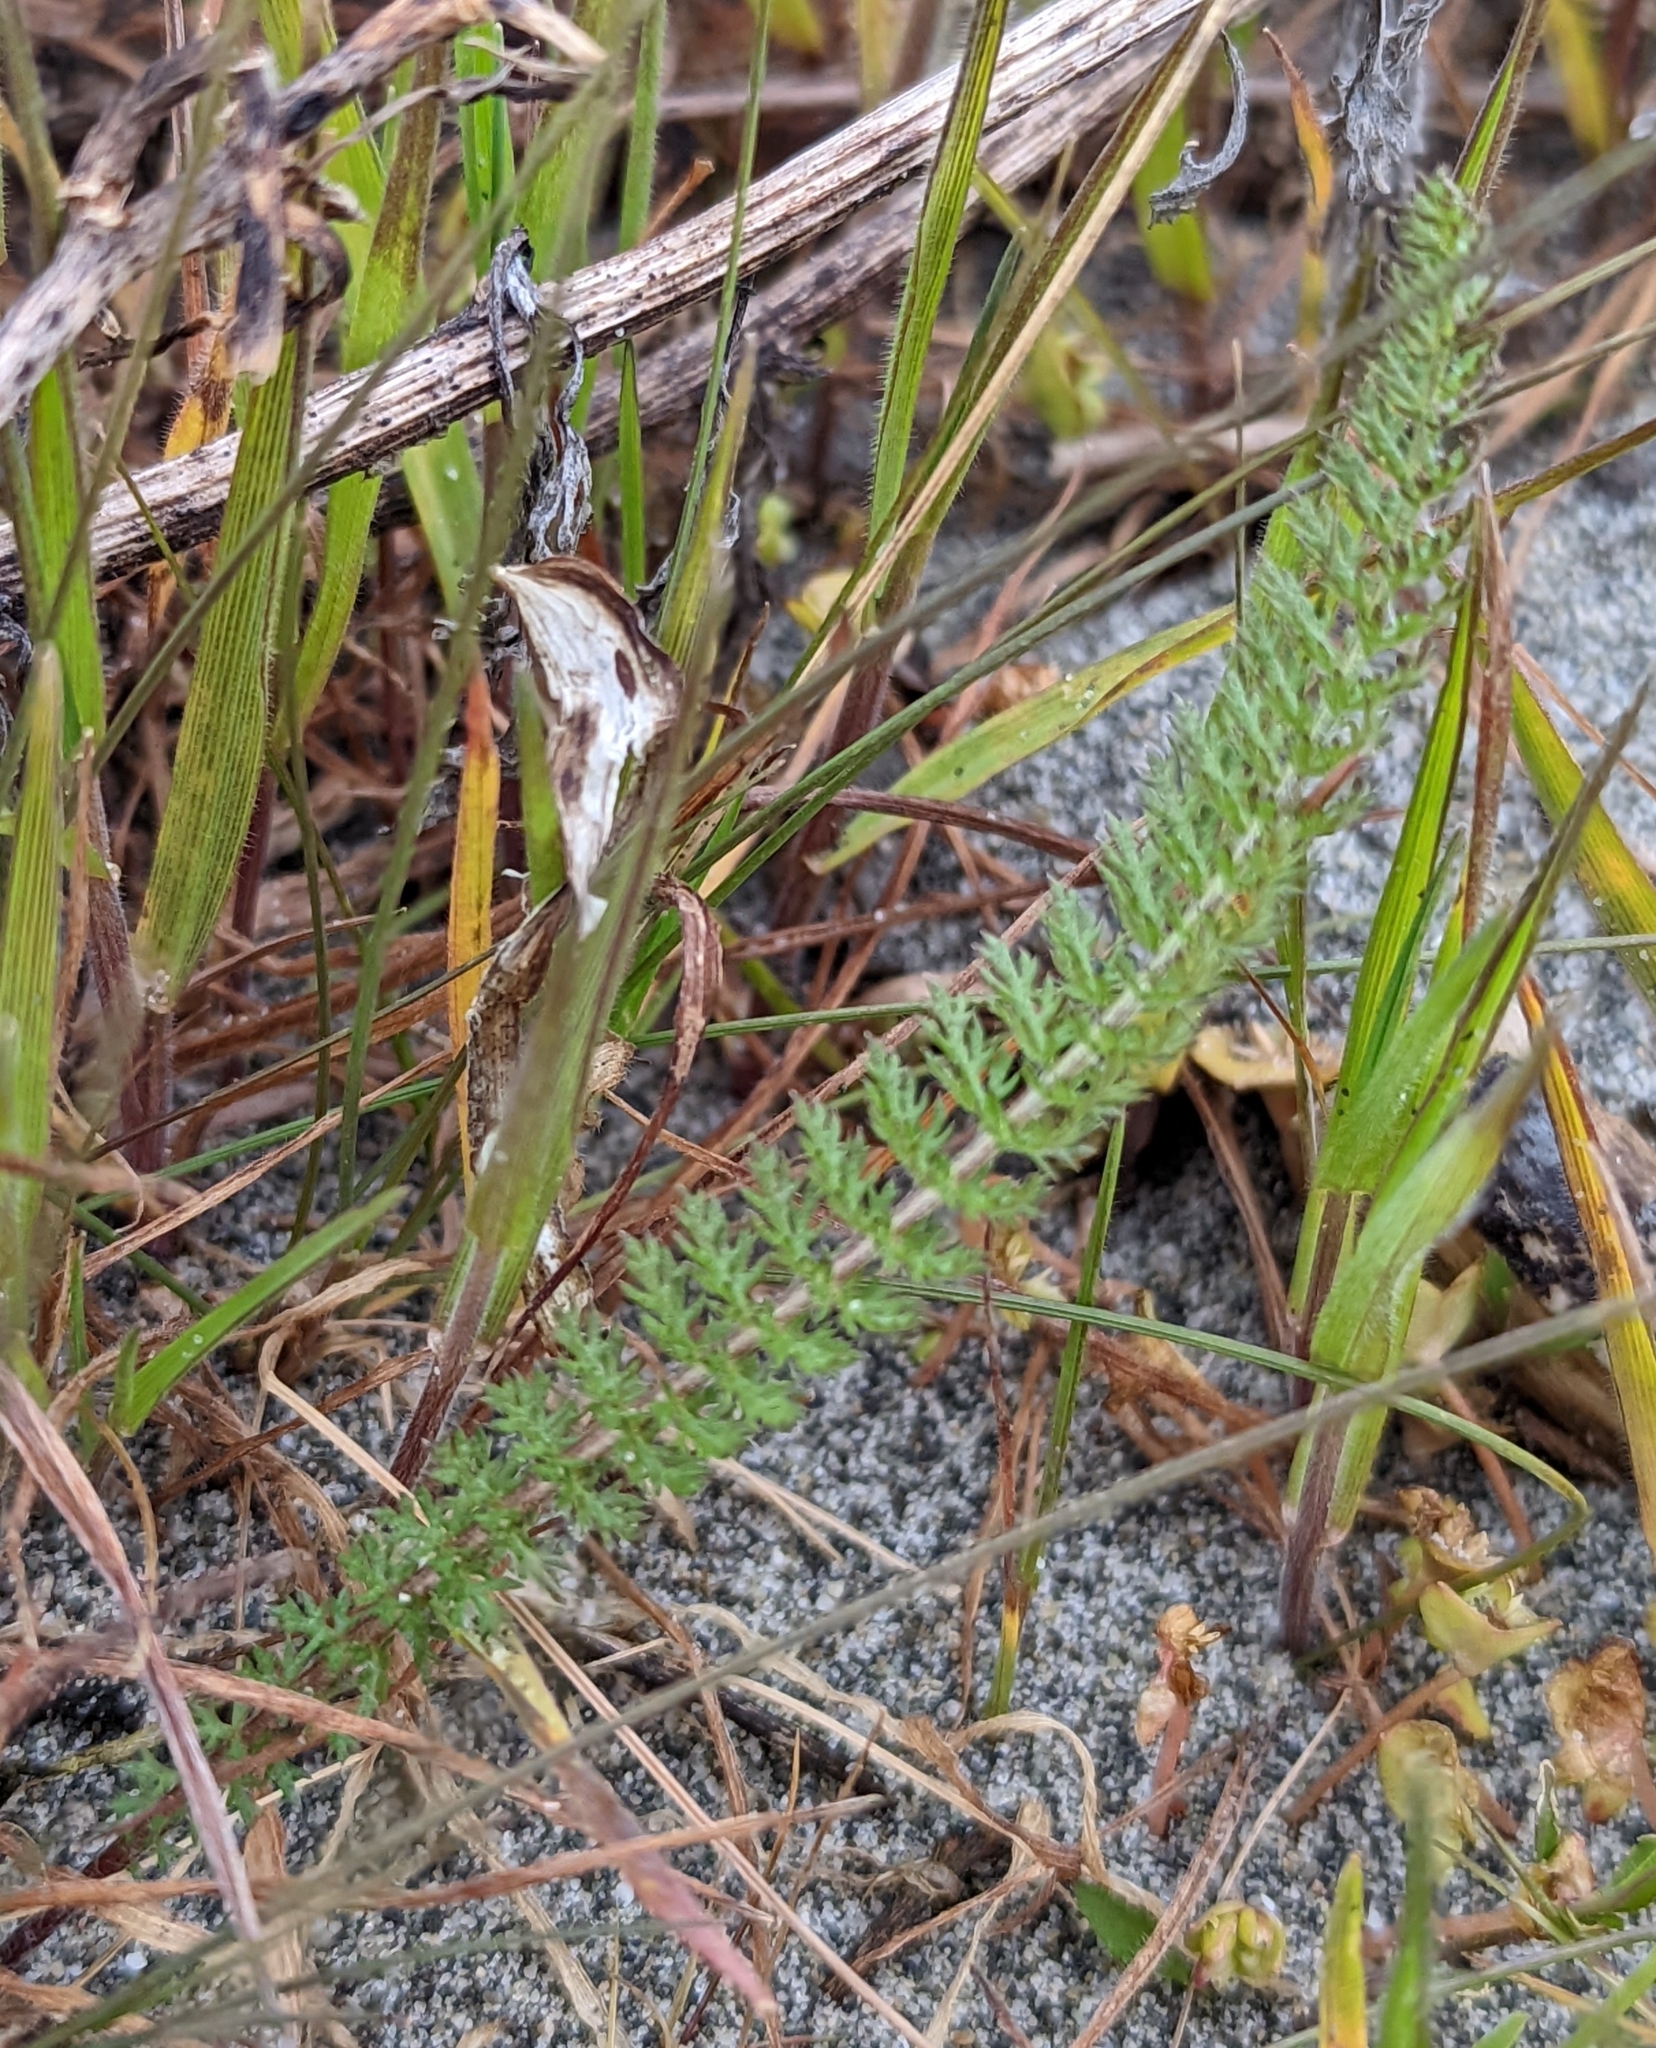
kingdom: Plantae
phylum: Tracheophyta
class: Magnoliopsida
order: Asterales
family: Asteraceae
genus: Achillea
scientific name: Achillea millefolium
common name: Yarrow
